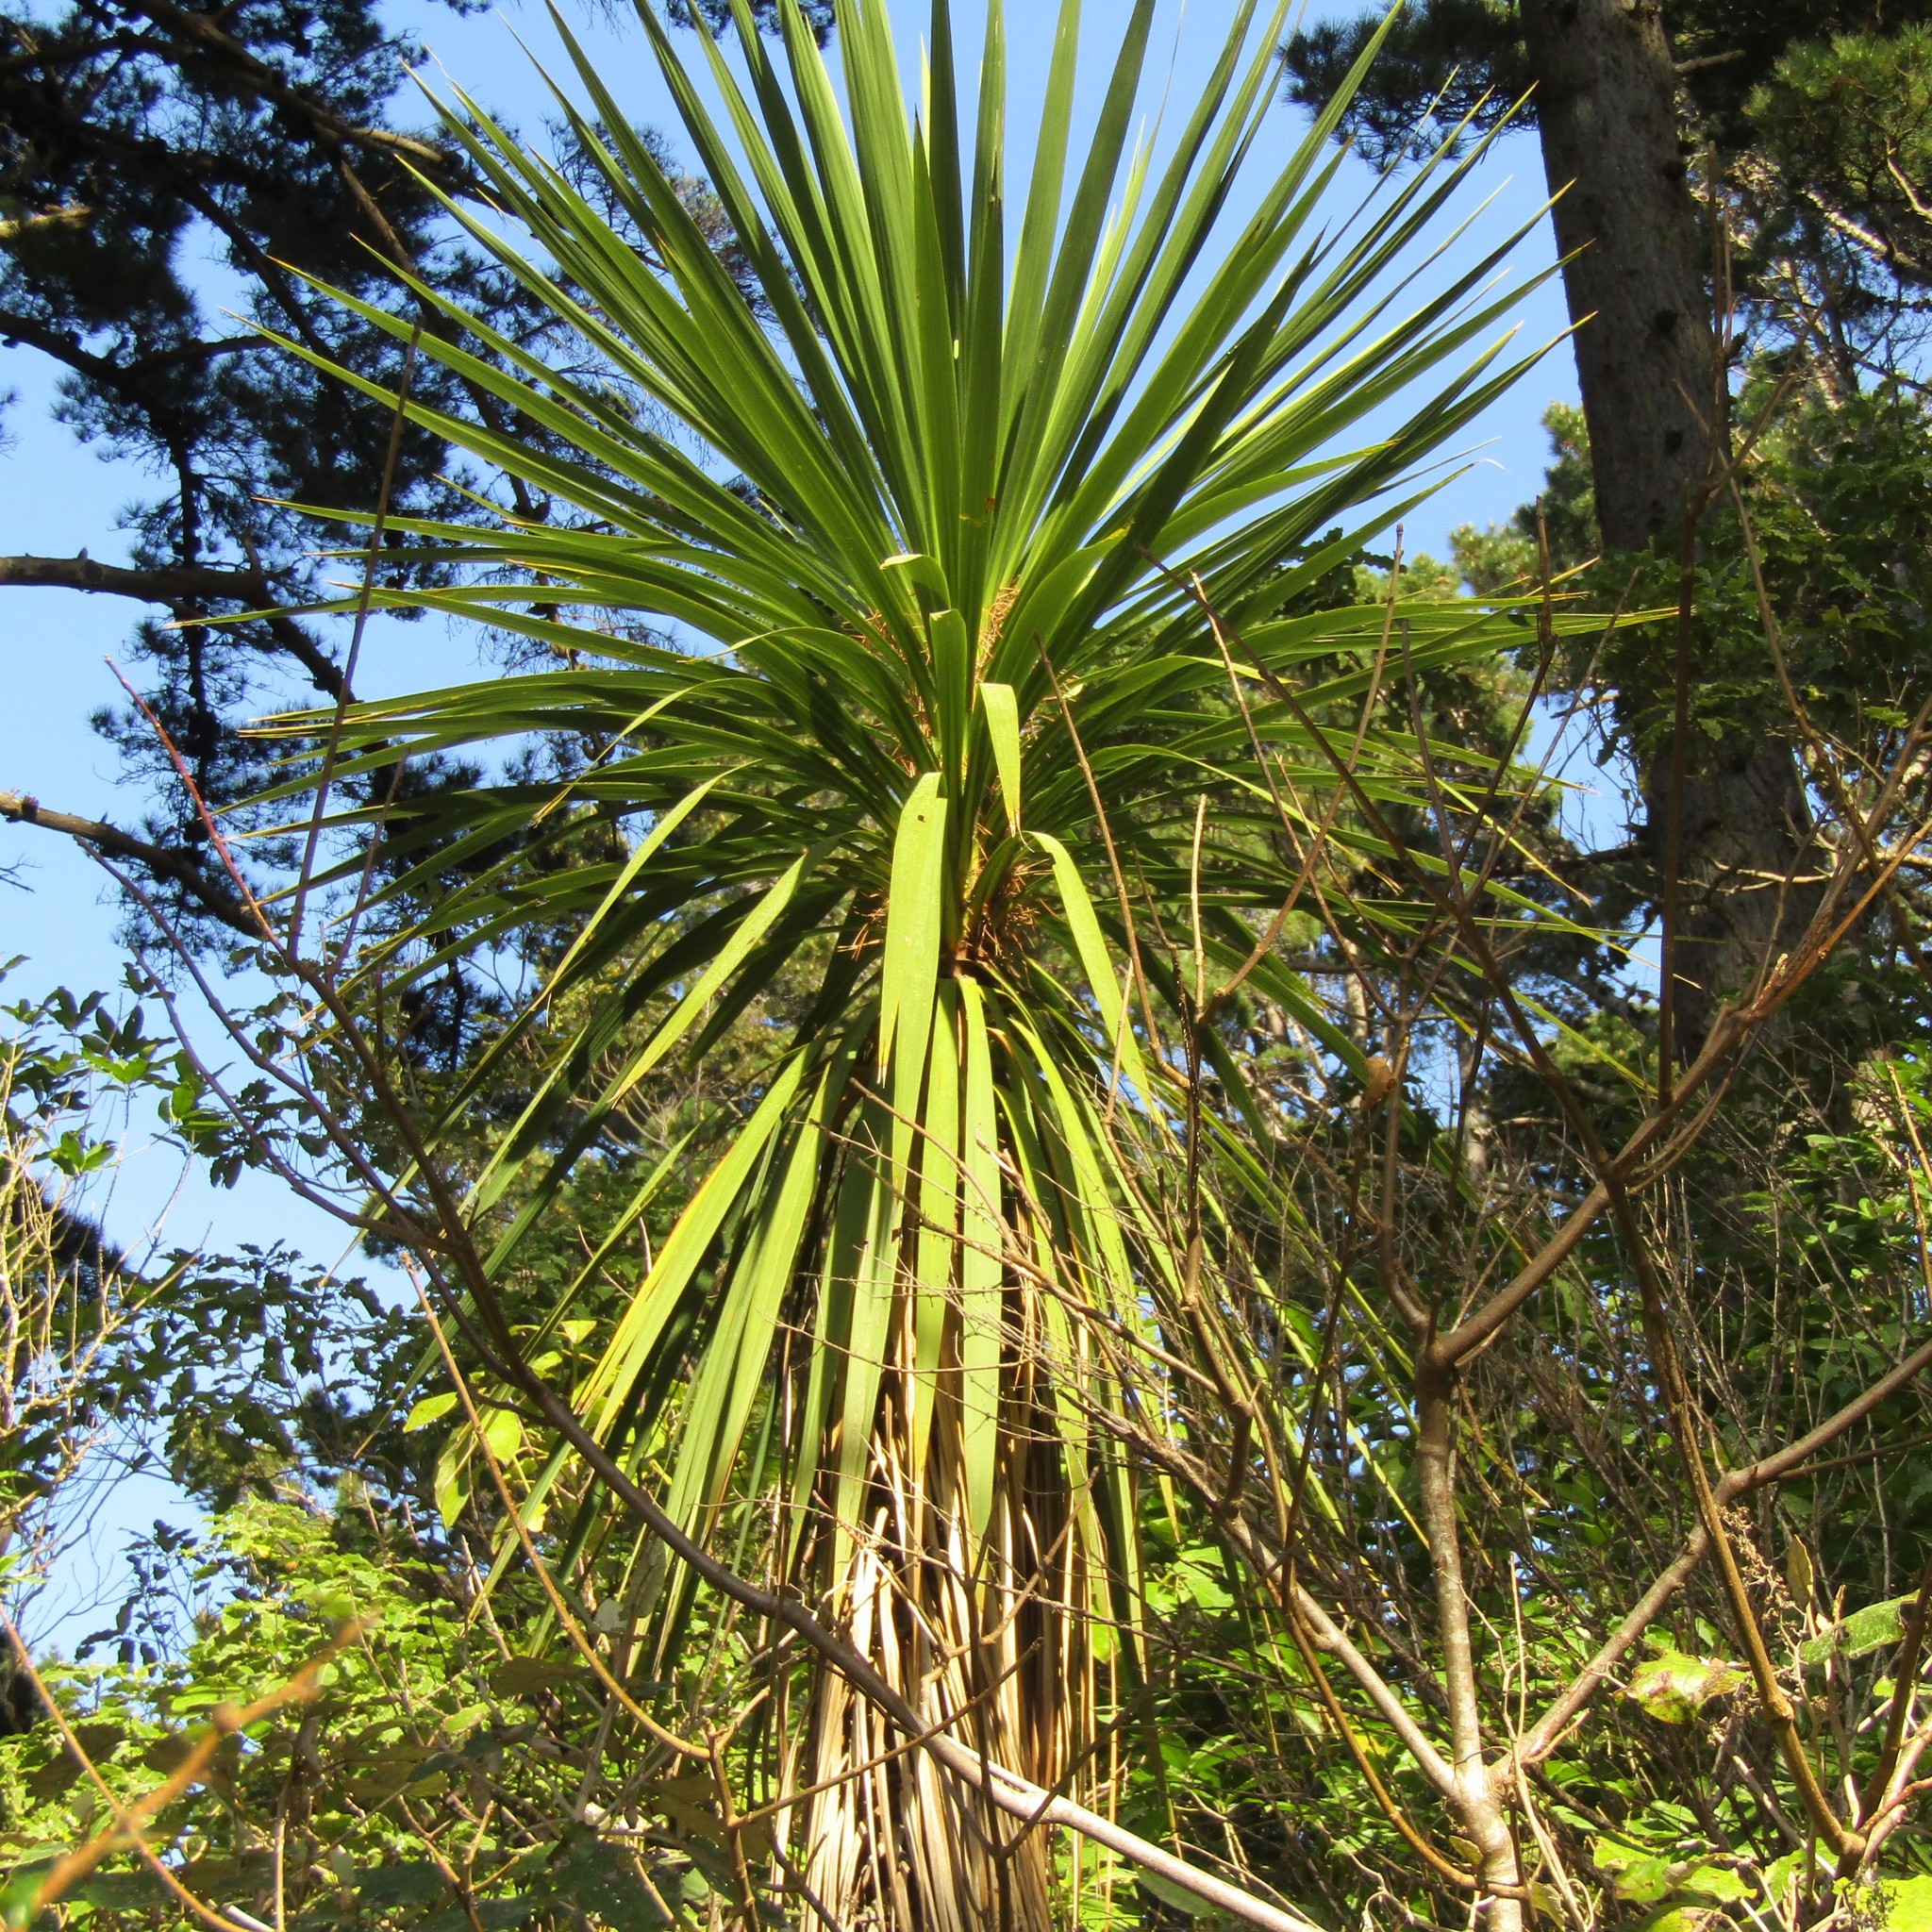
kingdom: Plantae
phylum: Tracheophyta
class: Liliopsida
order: Asparagales
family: Asparagaceae
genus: Cordyline
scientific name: Cordyline australis
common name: Cabbage-palm
